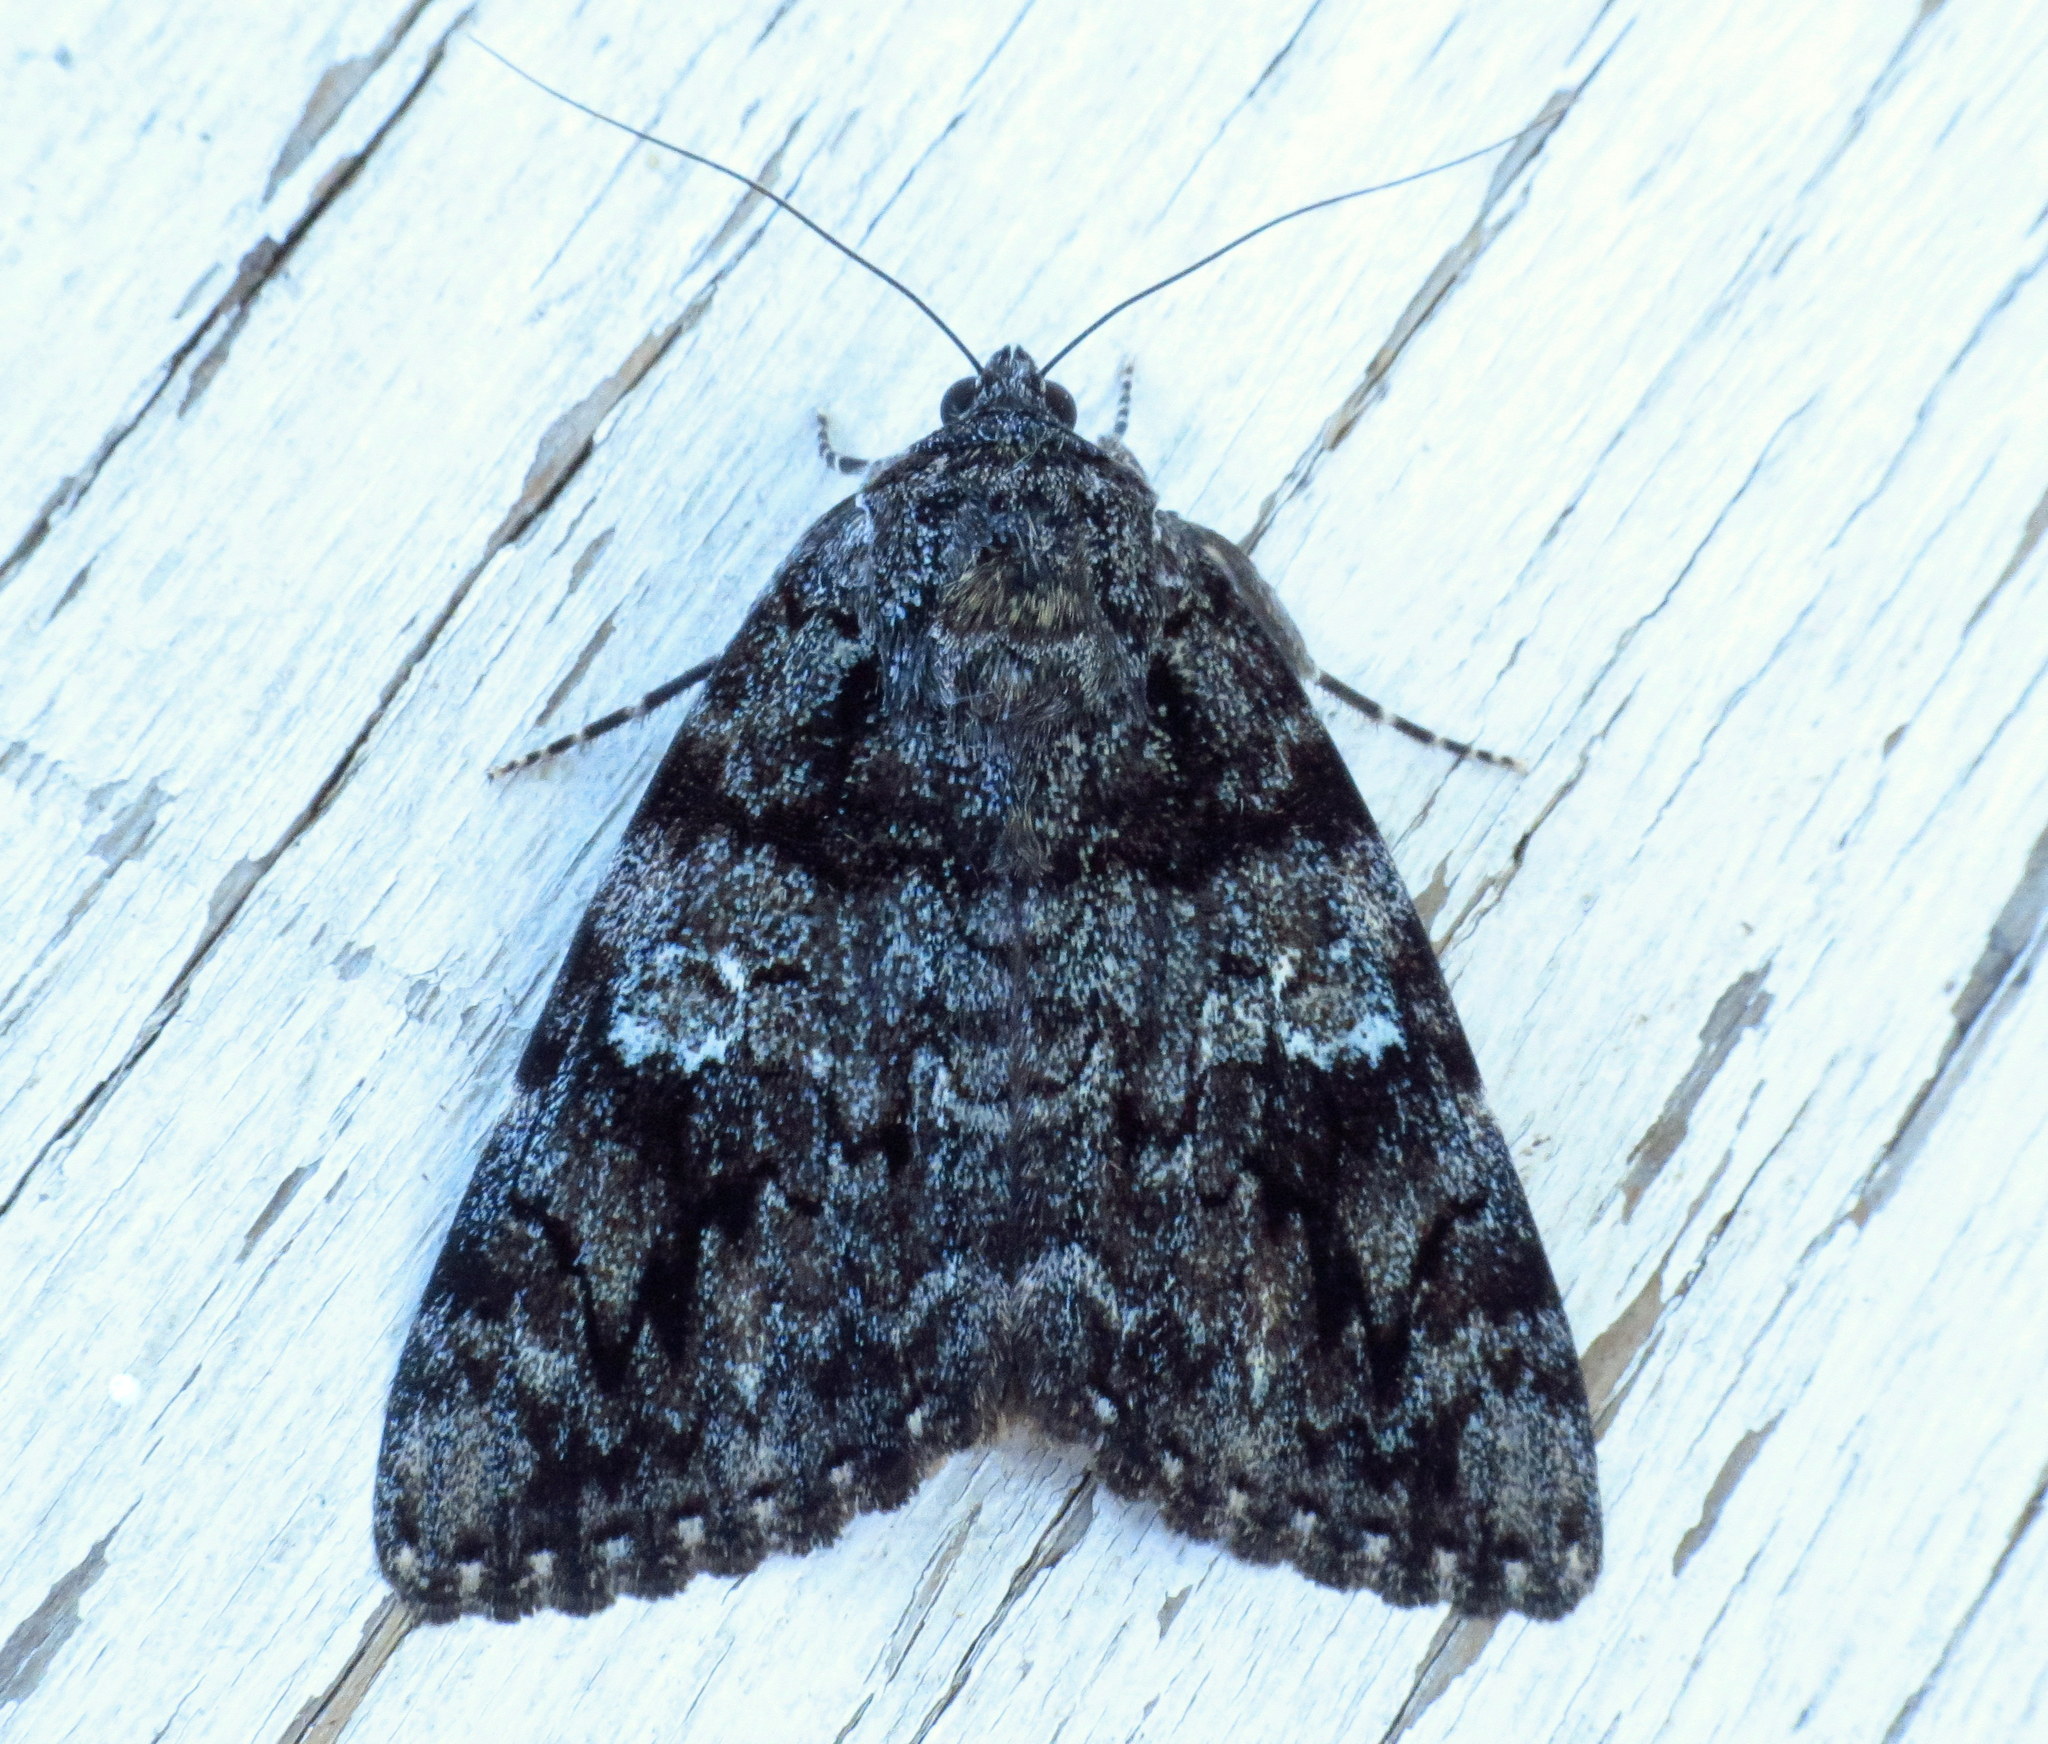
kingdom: Animalia
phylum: Arthropoda
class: Insecta
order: Lepidoptera
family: Erebidae
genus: Catocala
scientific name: Catocala ilia
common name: Ilia underwing
